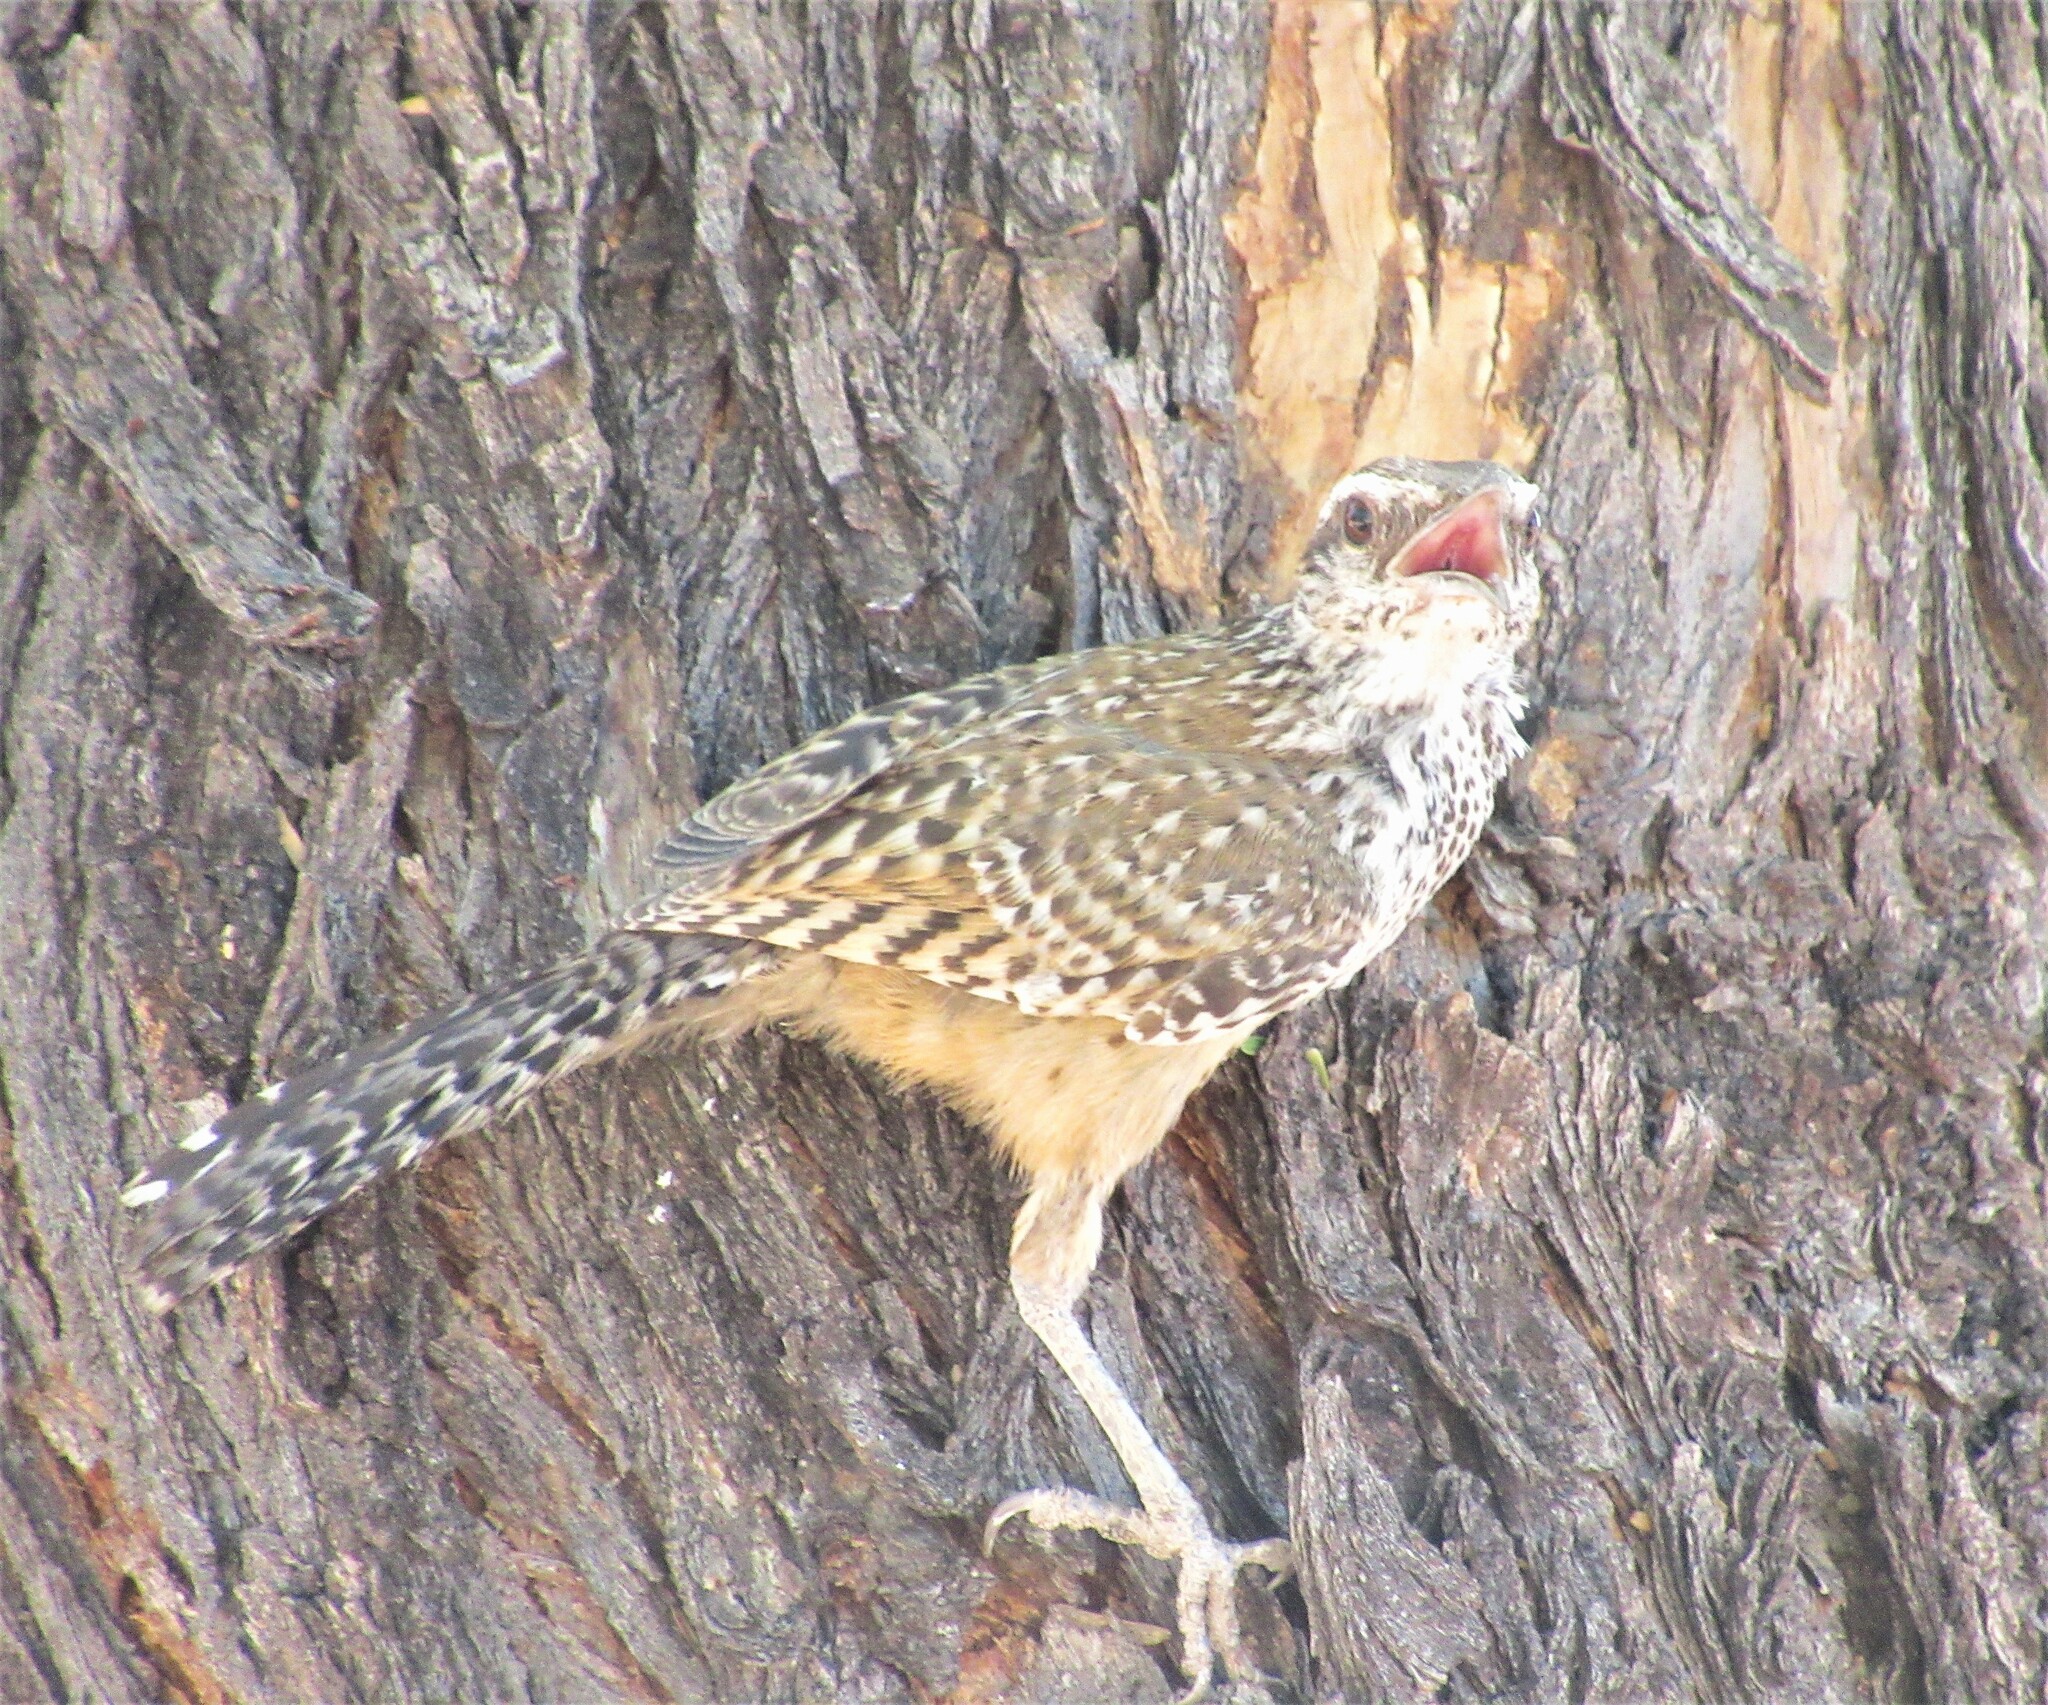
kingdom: Animalia
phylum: Chordata
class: Aves
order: Passeriformes
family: Troglodytidae
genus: Campylorhynchus
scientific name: Campylorhynchus brunneicapillus
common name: Cactus wren
